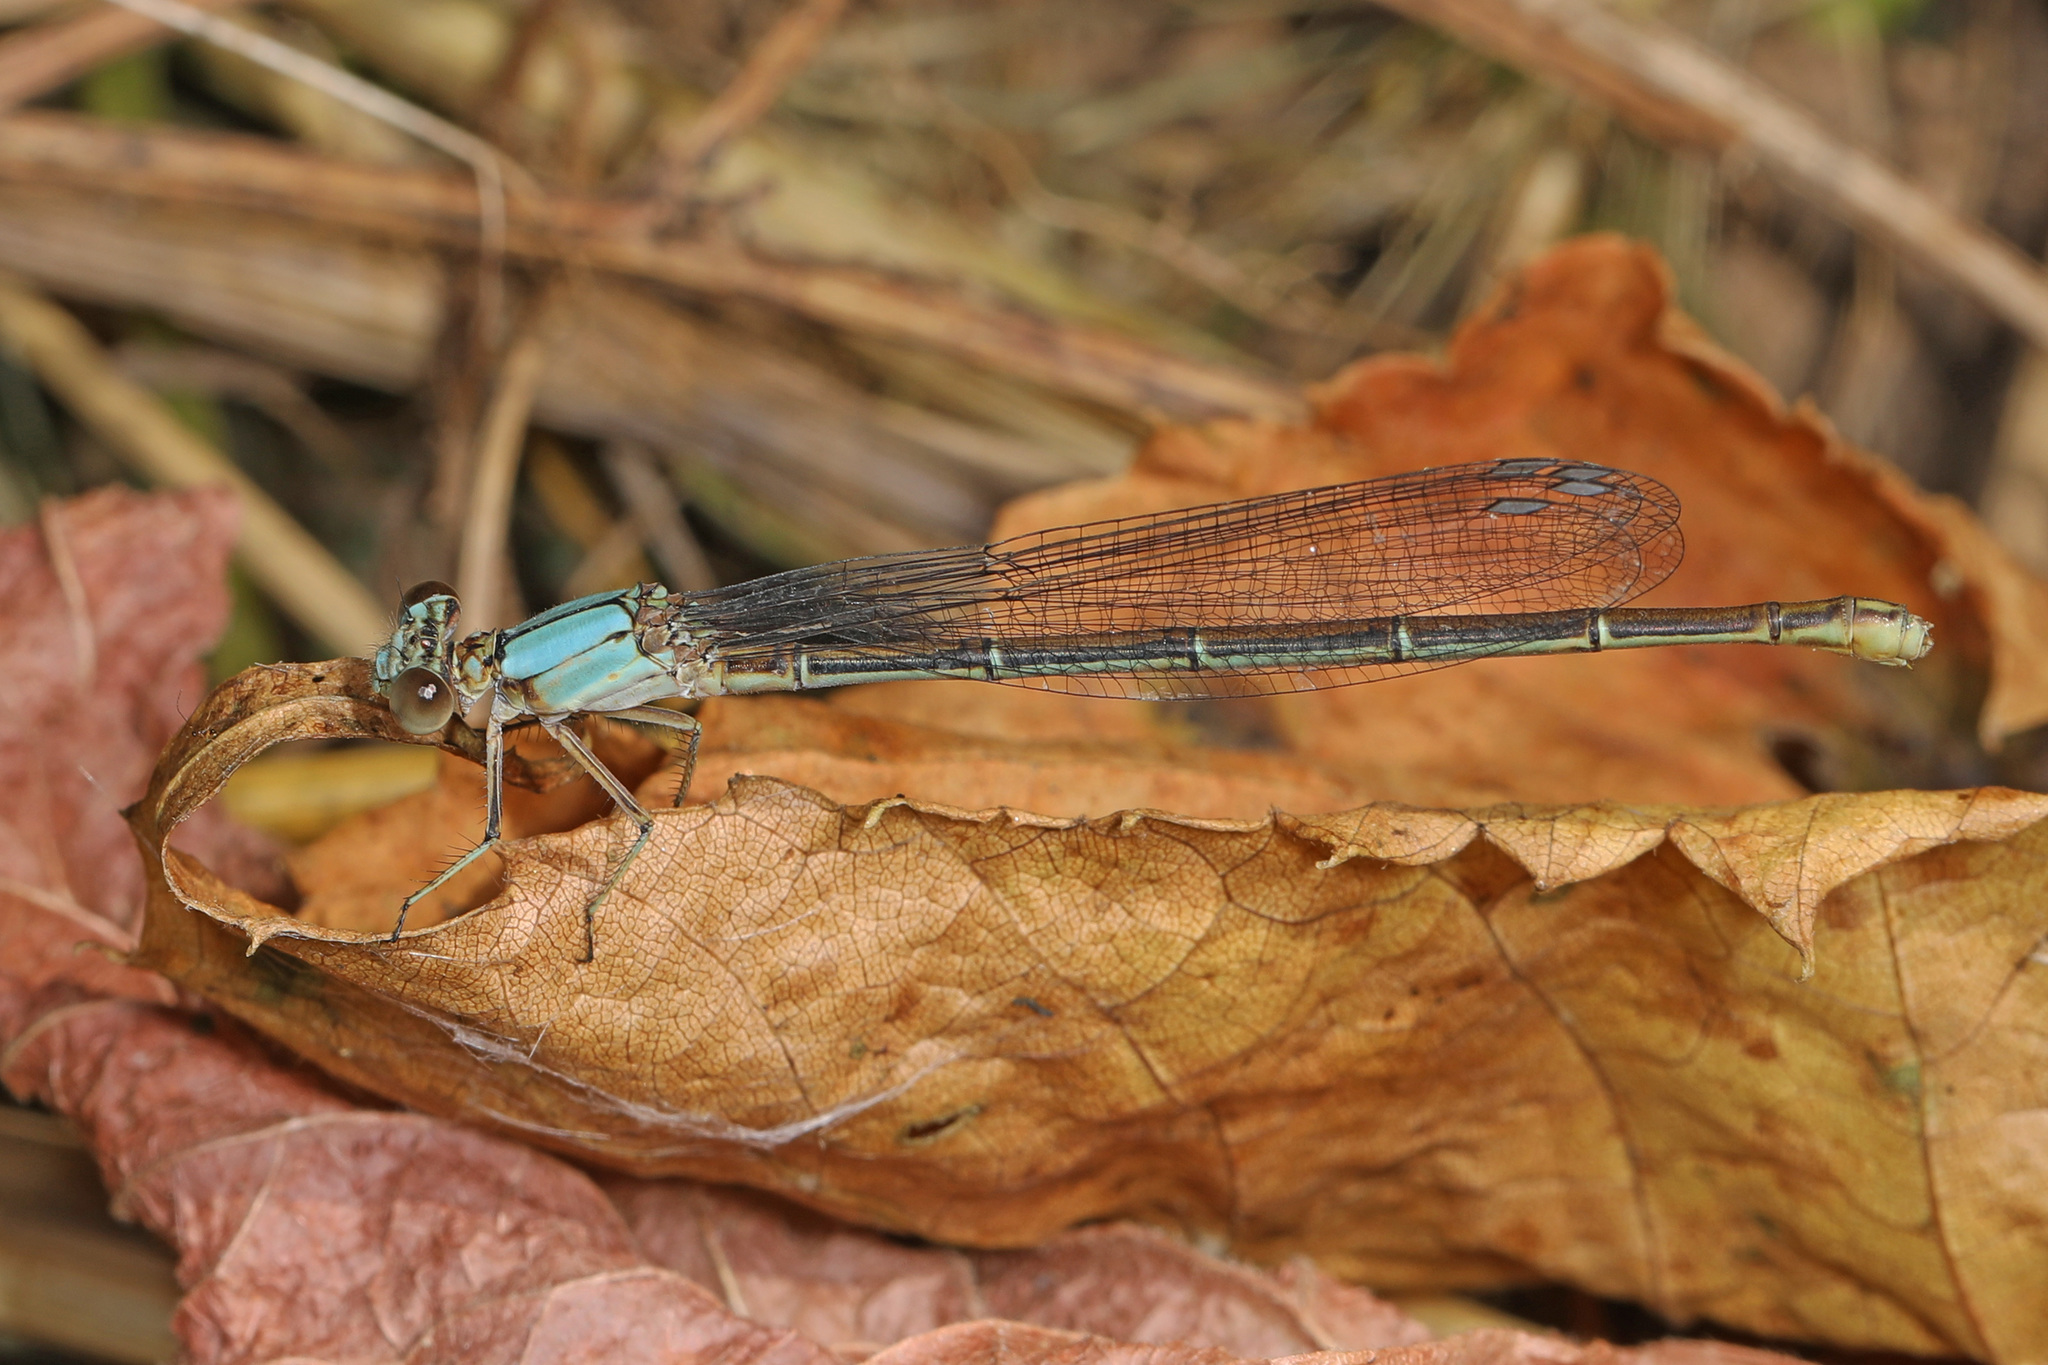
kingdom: Animalia
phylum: Arthropoda
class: Insecta
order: Odonata
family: Coenagrionidae
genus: Argia
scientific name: Argia moesta
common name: Powdered dancer
